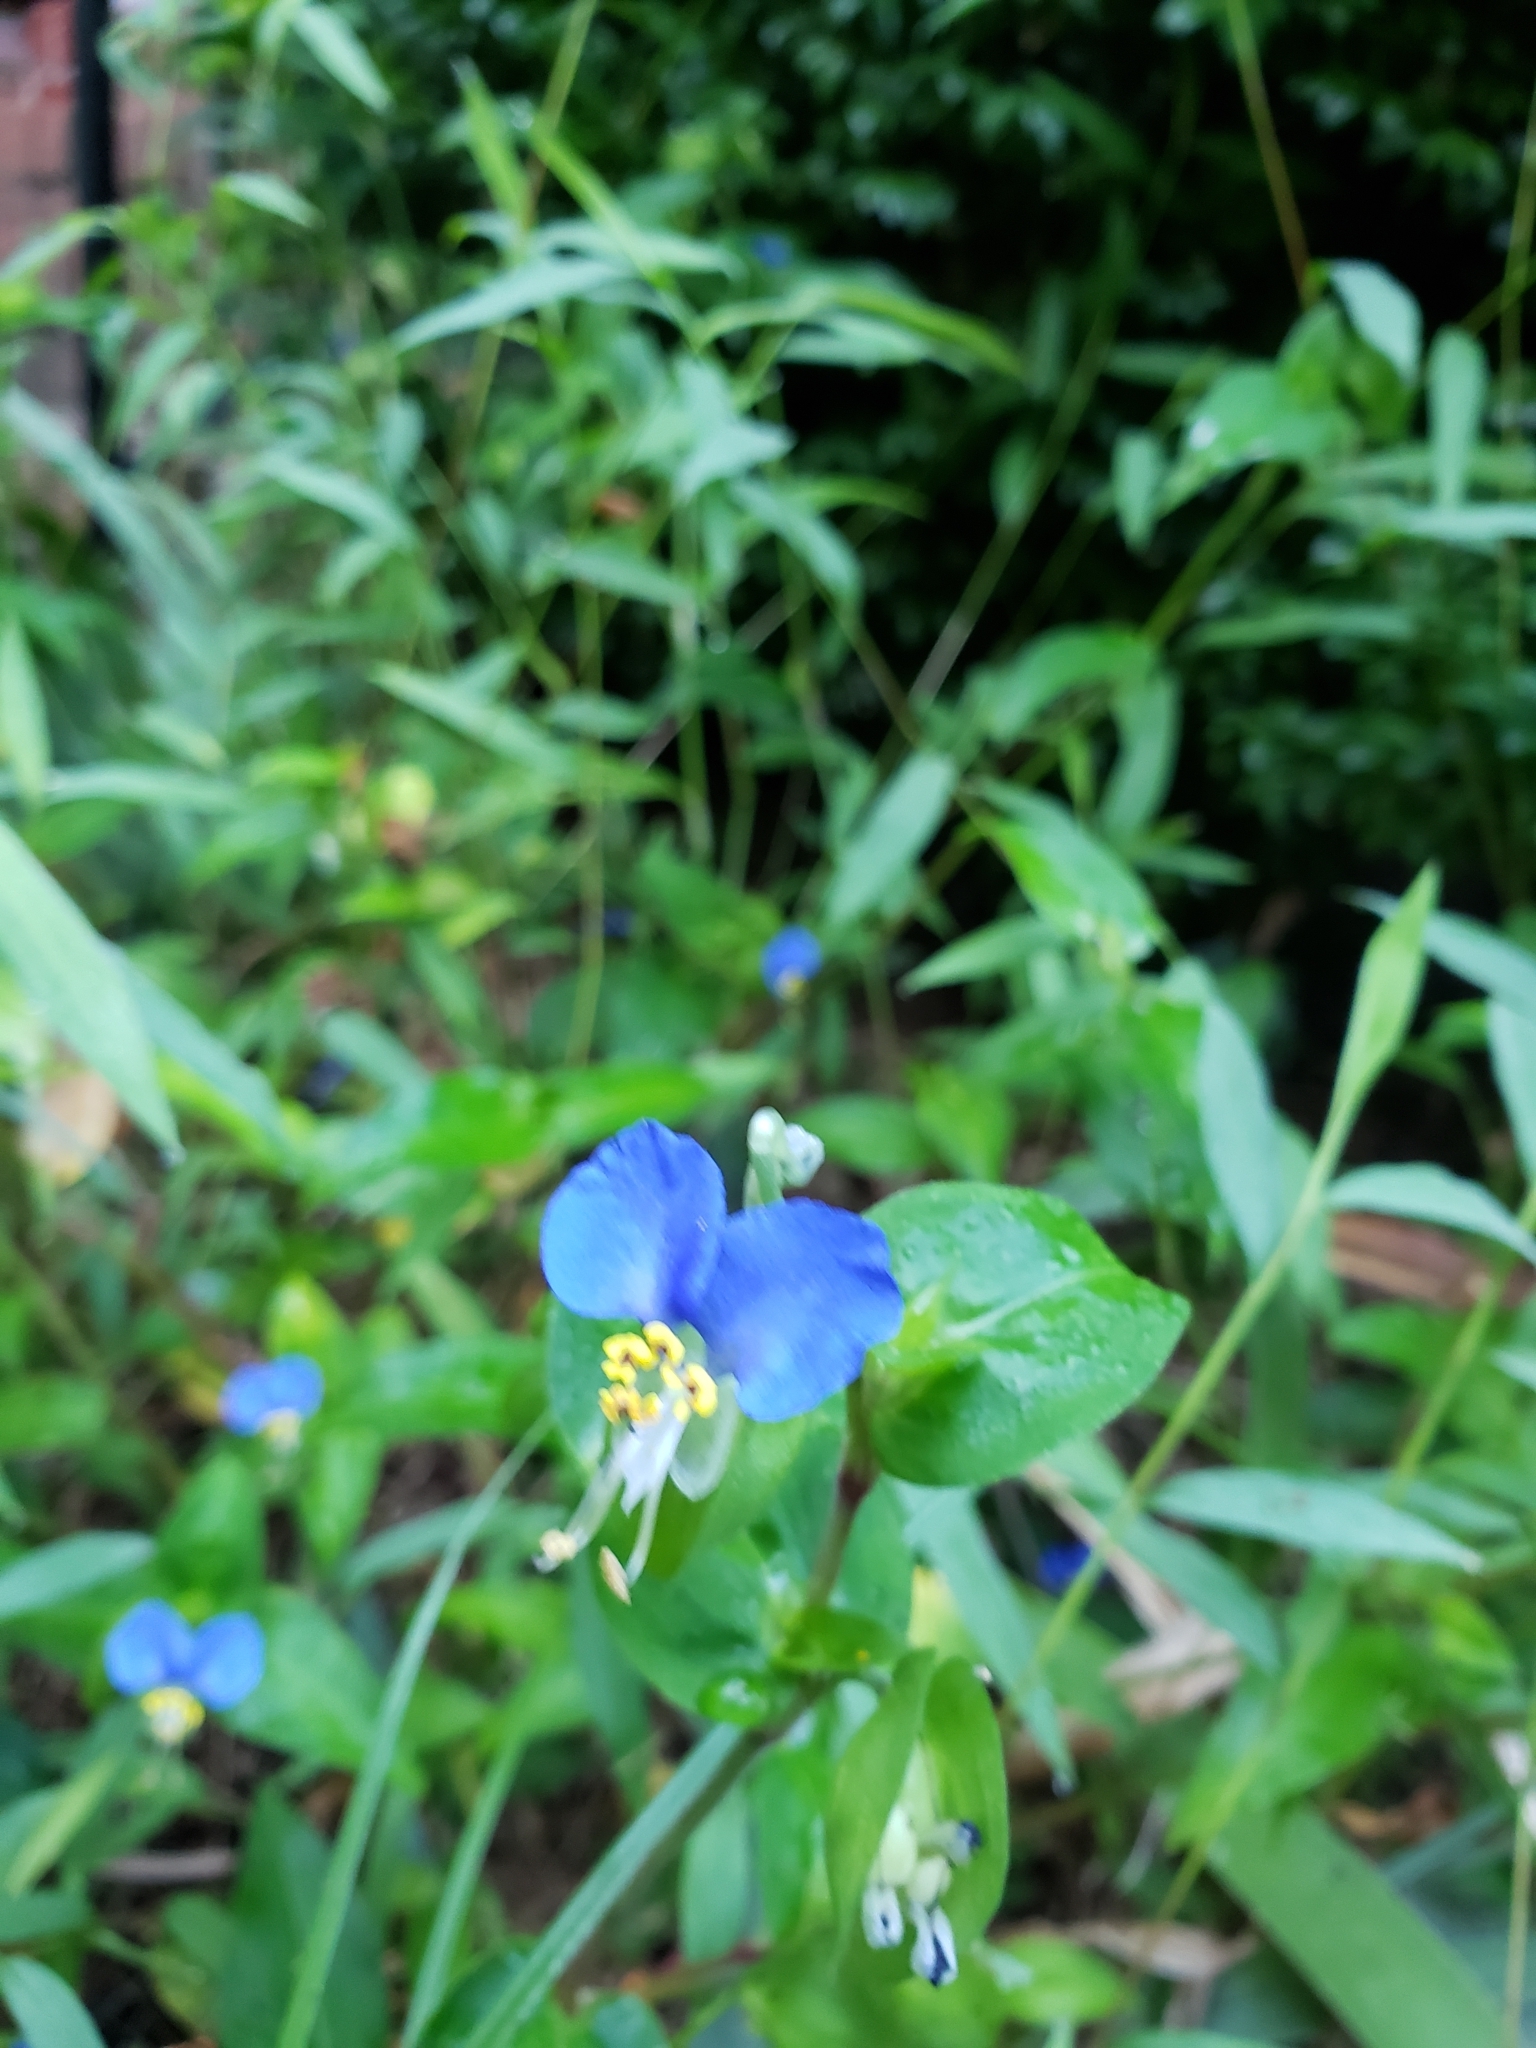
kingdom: Plantae
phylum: Tracheophyta
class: Liliopsida
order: Commelinales
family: Commelinaceae
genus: Commelina
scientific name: Commelina communis
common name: Asiatic dayflower
